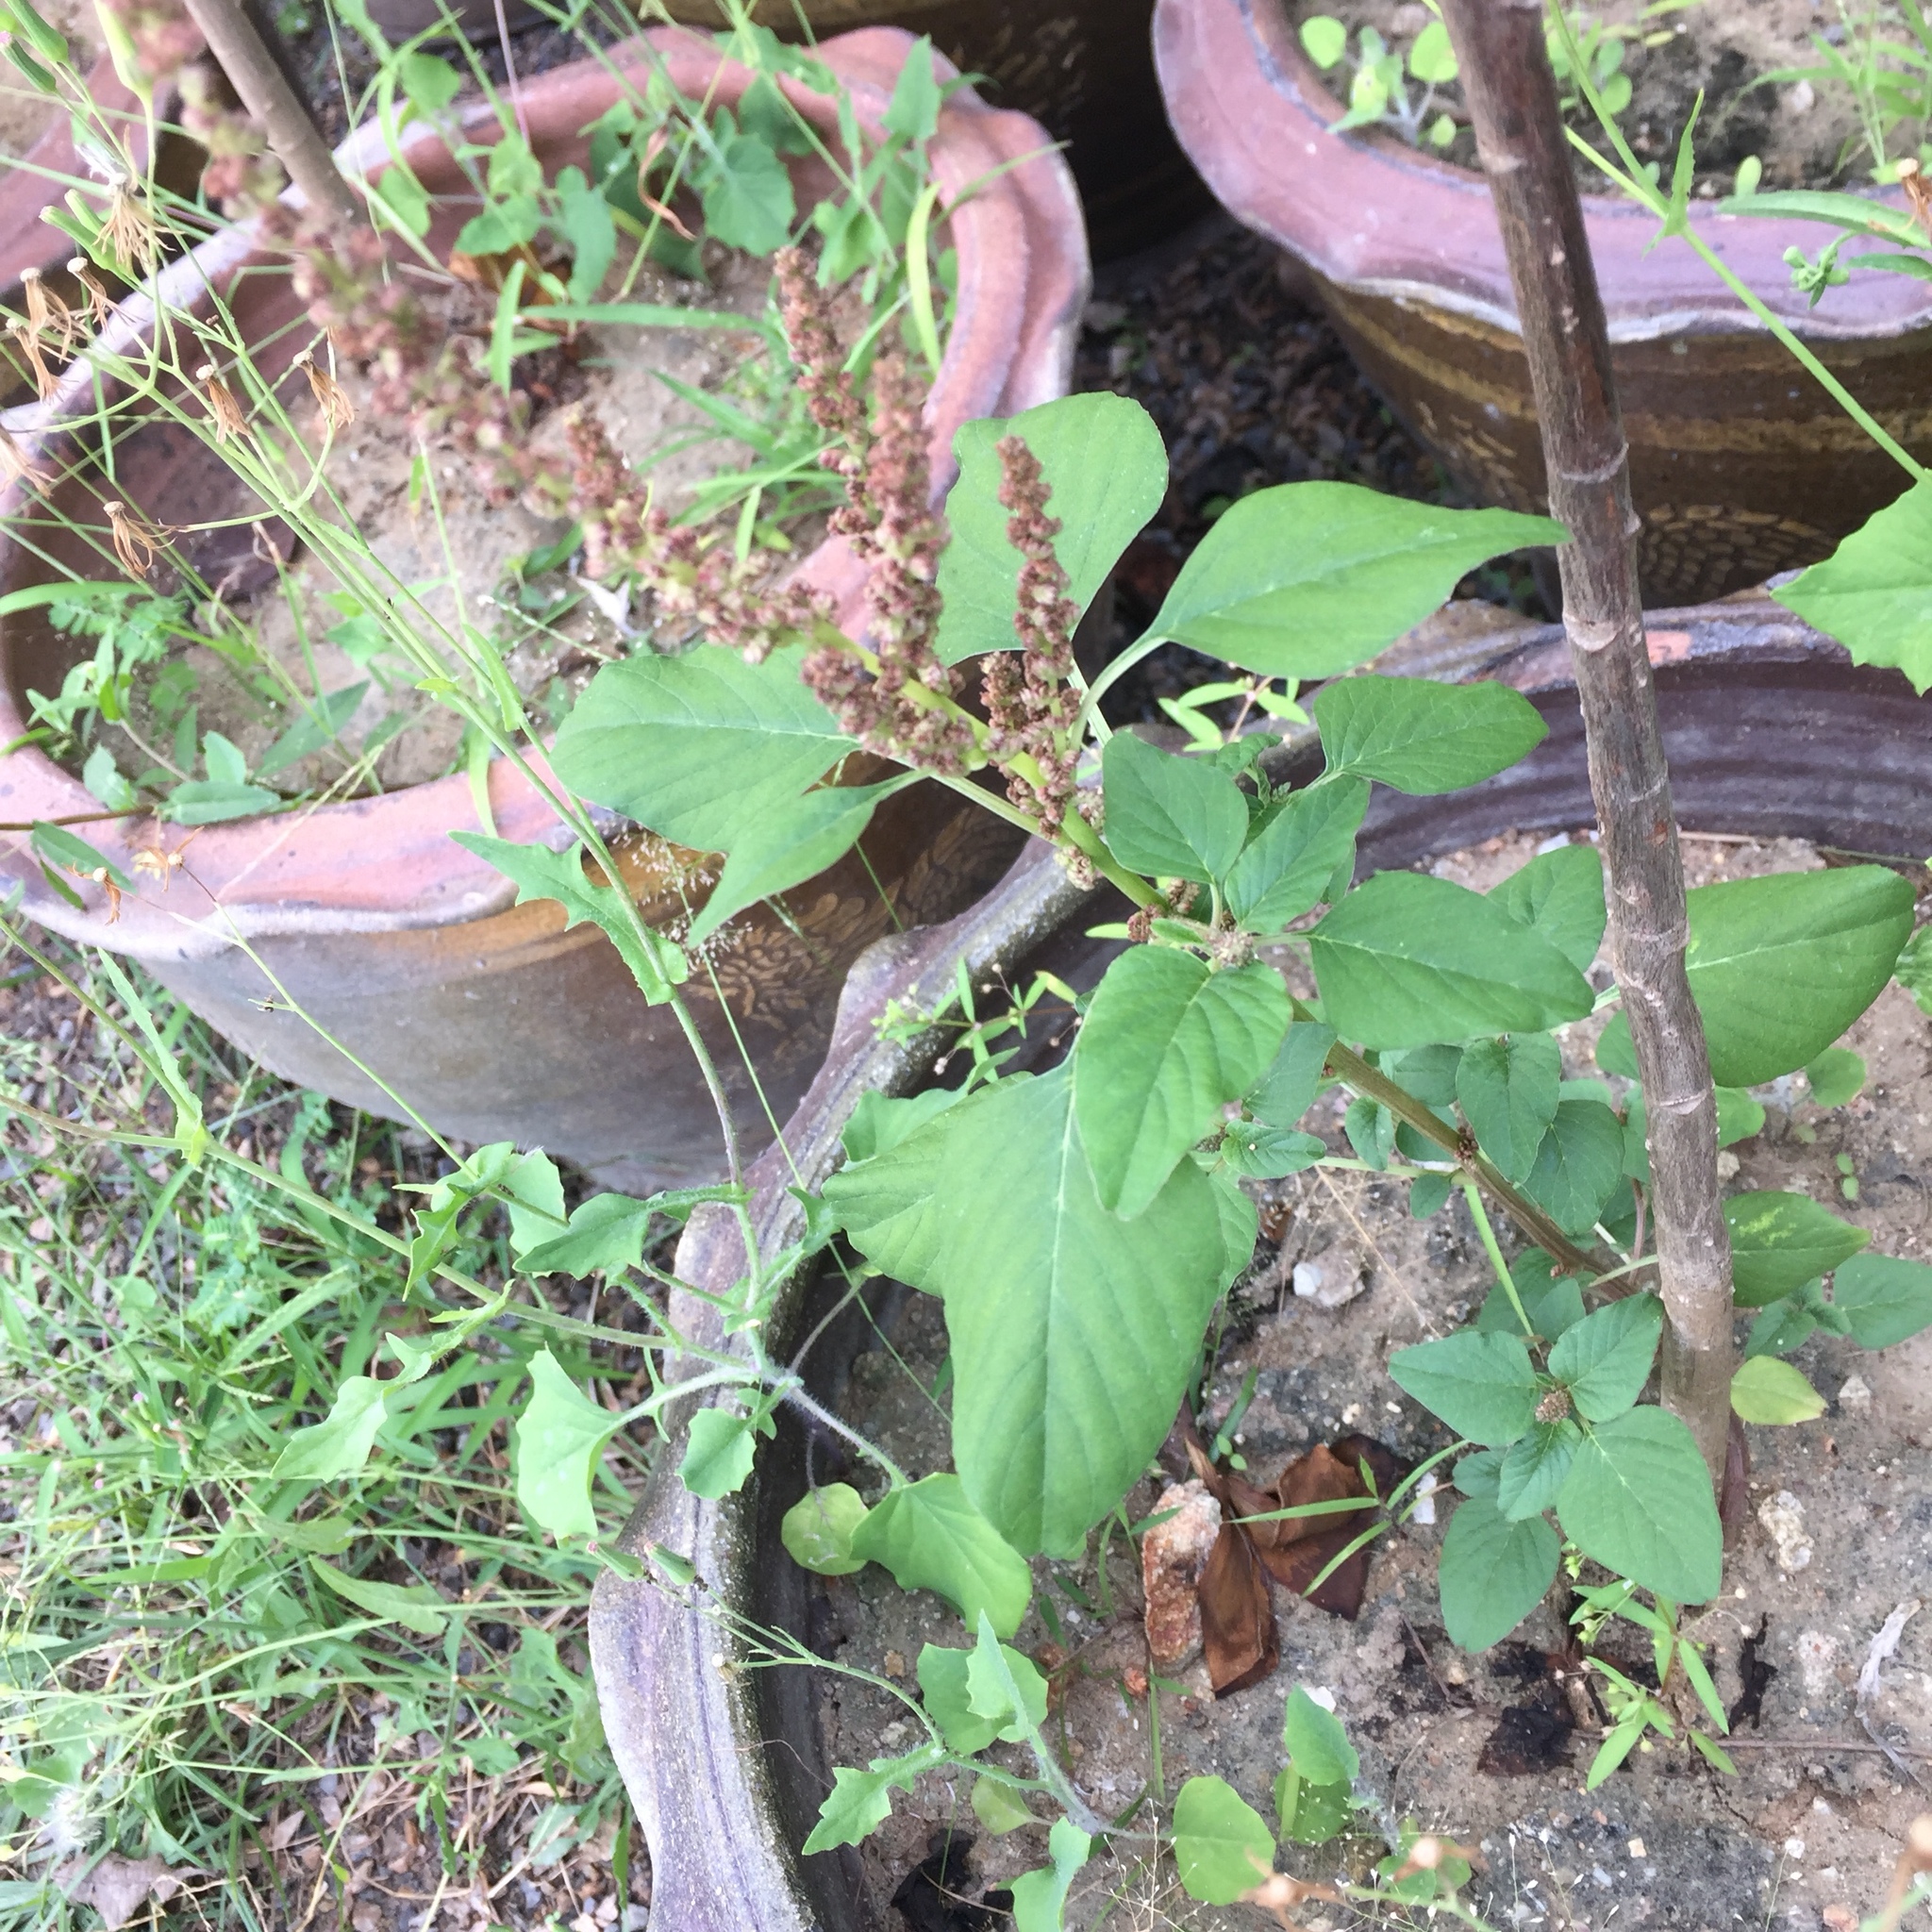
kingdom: Plantae
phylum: Tracheophyta
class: Magnoliopsida
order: Caryophyllales
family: Amaranthaceae
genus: Amaranthus
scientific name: Amaranthus viridis
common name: Slender amaranth
